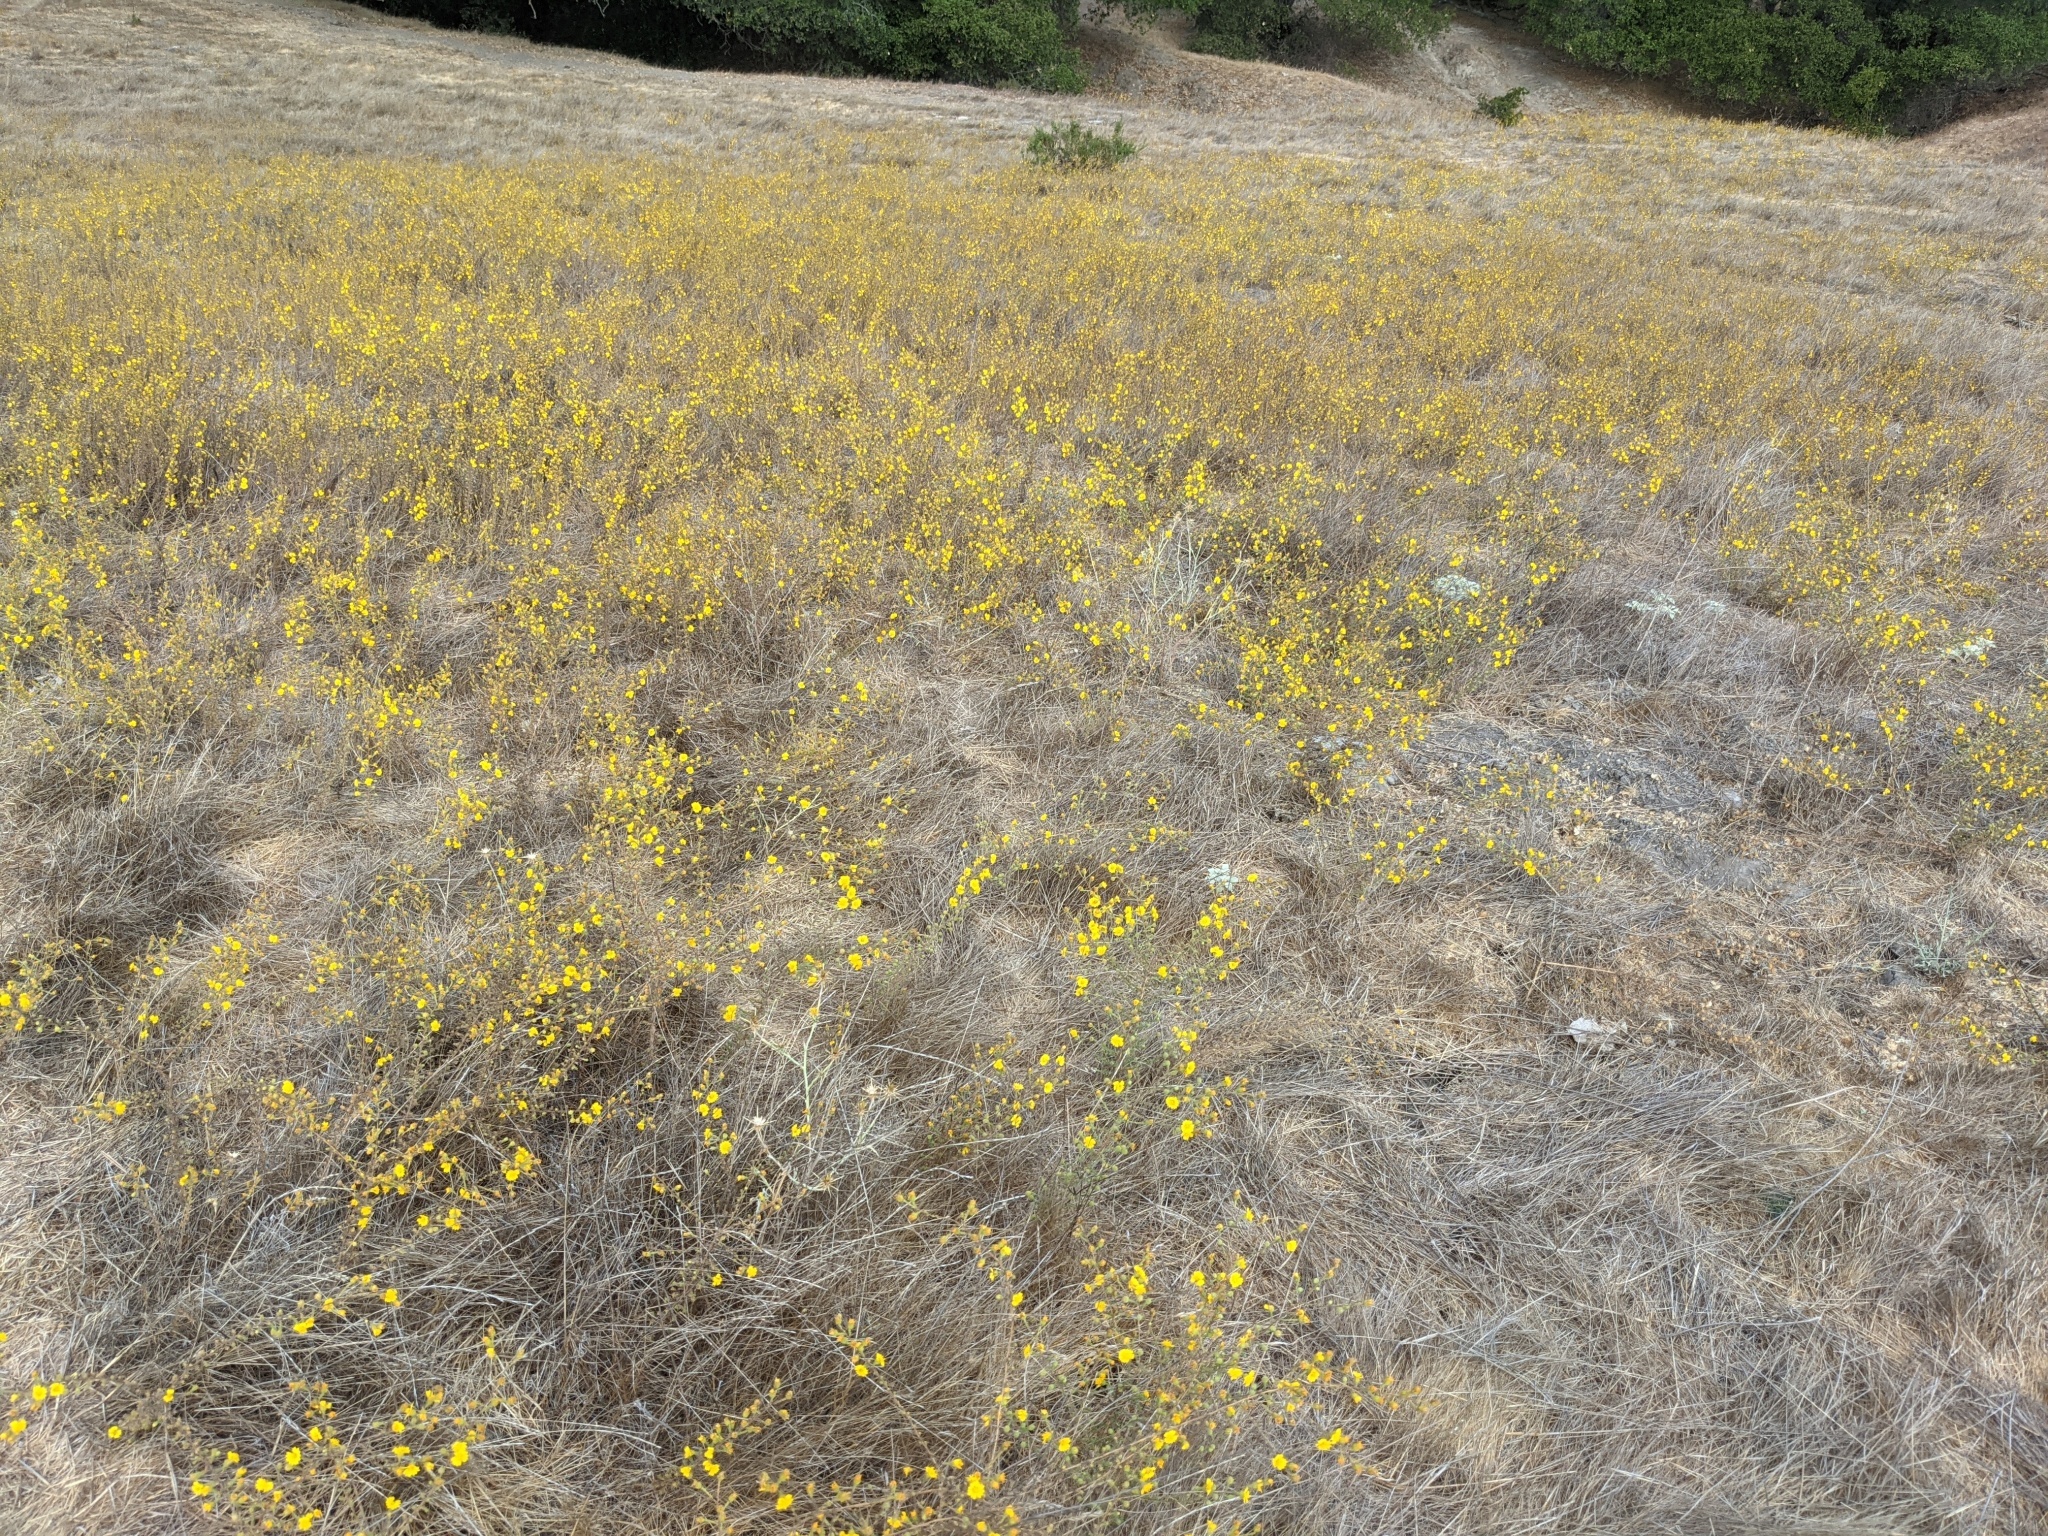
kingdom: Plantae
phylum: Tracheophyta
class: Magnoliopsida
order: Asterales
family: Asteraceae
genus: Holocarpha
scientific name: Holocarpha heermannii
